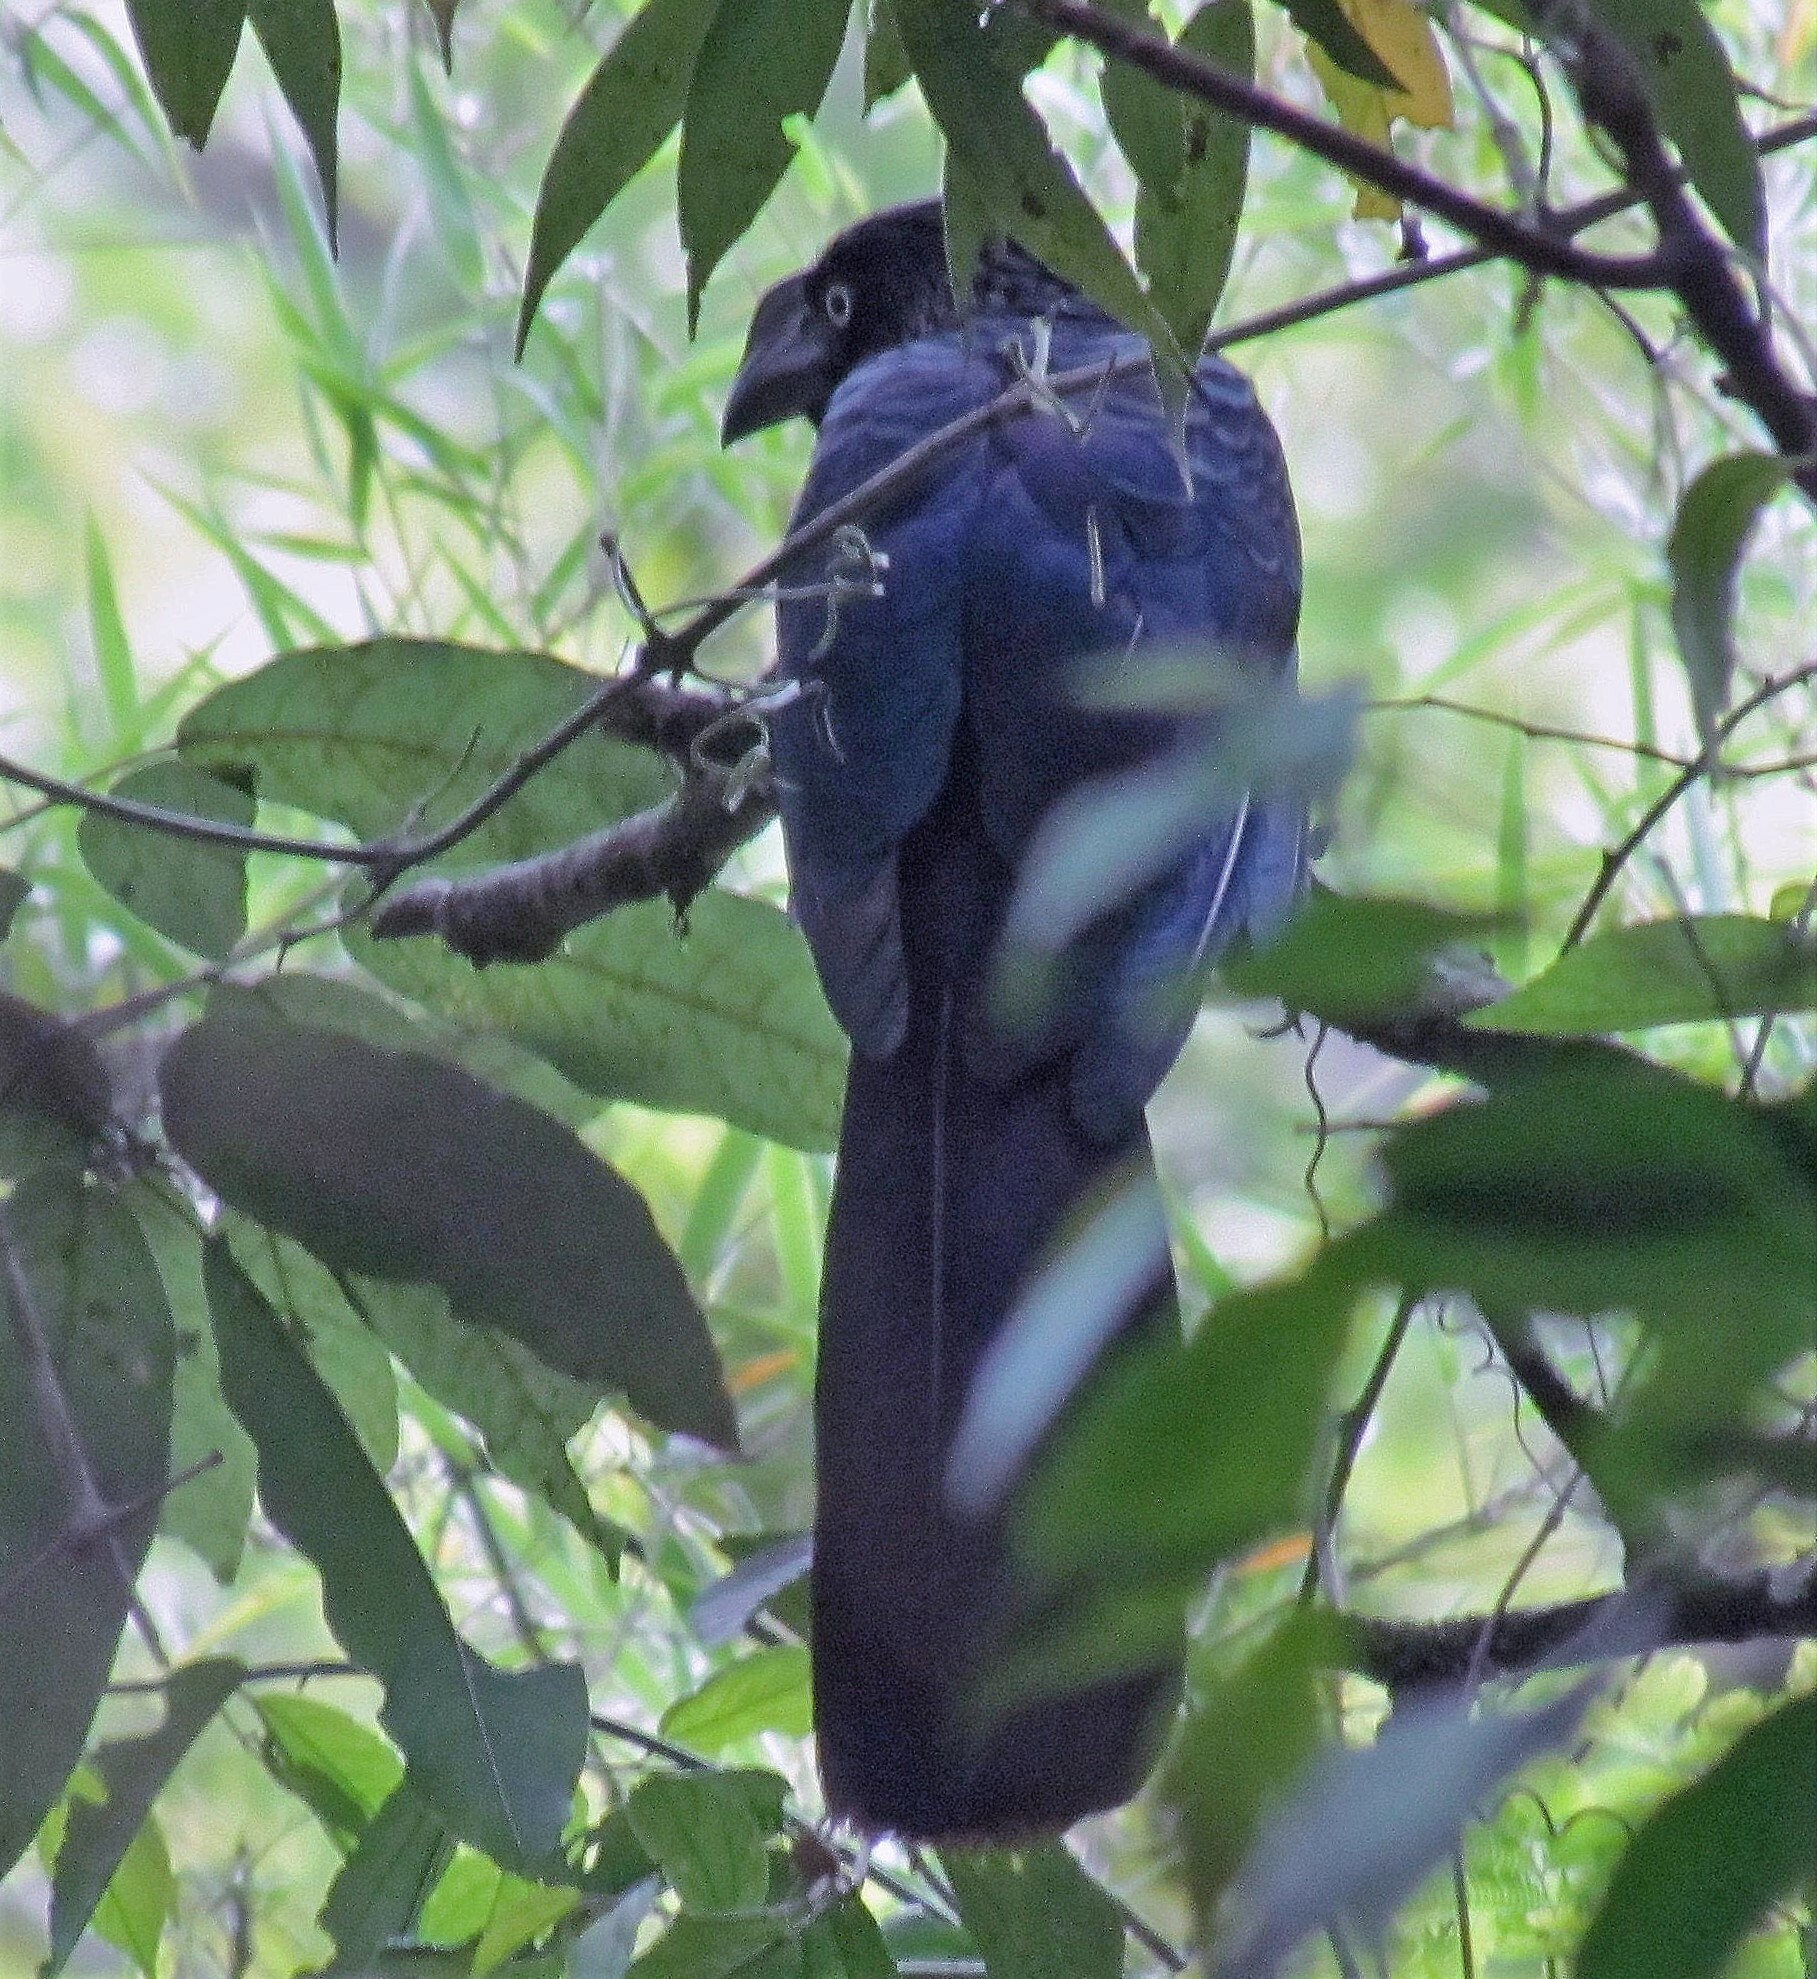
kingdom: Animalia
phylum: Chordata
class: Aves
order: Cuculiformes
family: Cuculidae
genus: Crotophaga
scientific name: Crotophaga major
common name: Greater ani
